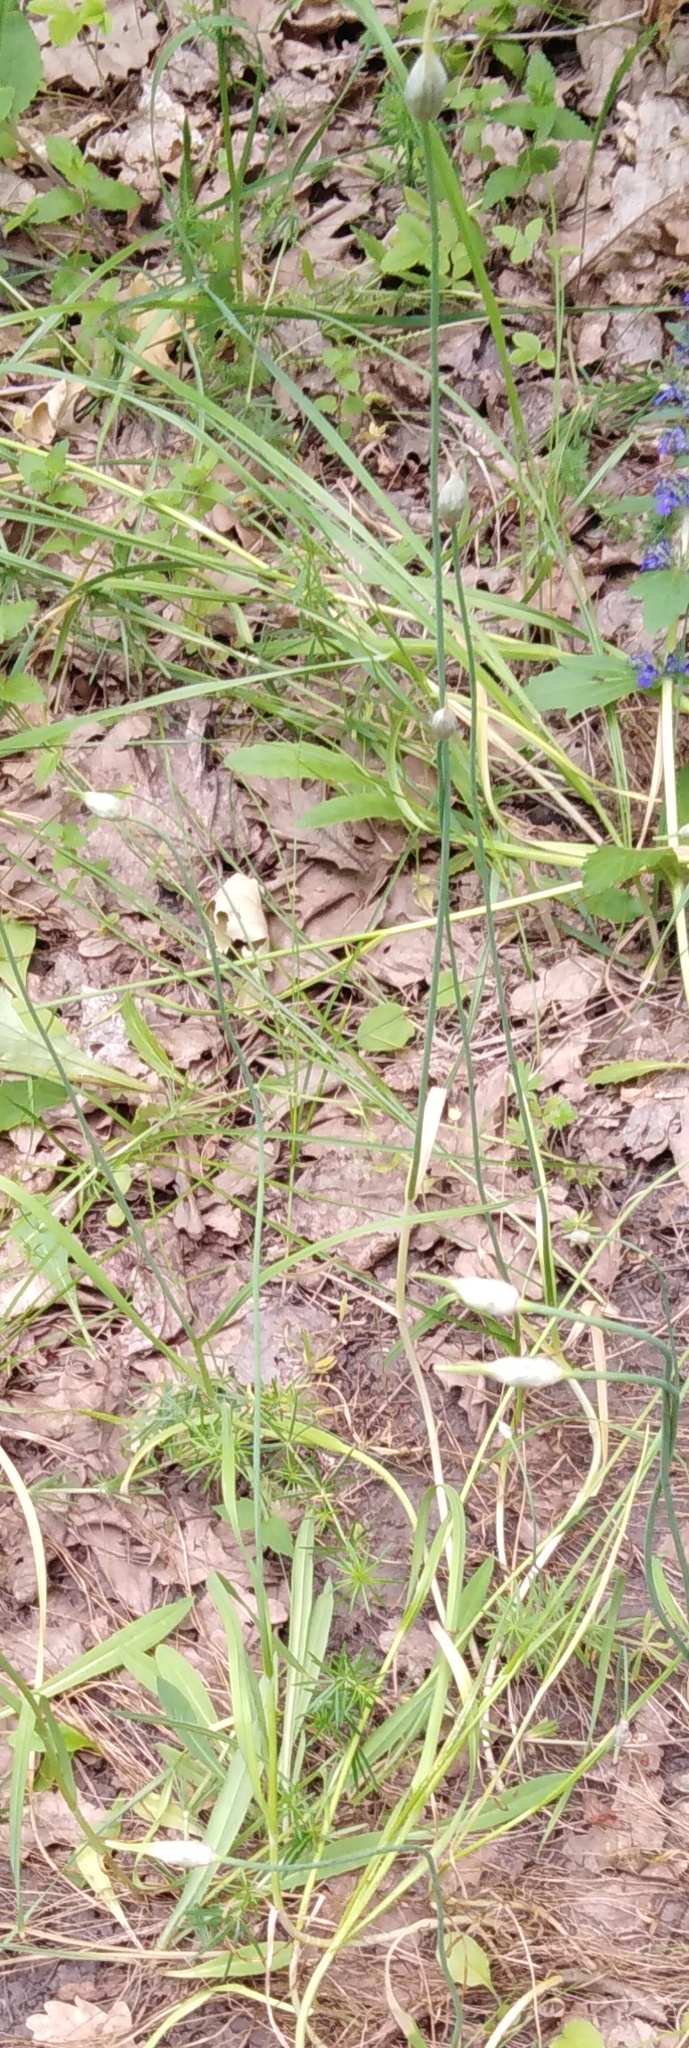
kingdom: Plantae
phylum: Tracheophyta
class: Liliopsida
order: Asparagales
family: Amaryllidaceae
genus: Allium
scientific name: Allium rotundum
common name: Sand leek
